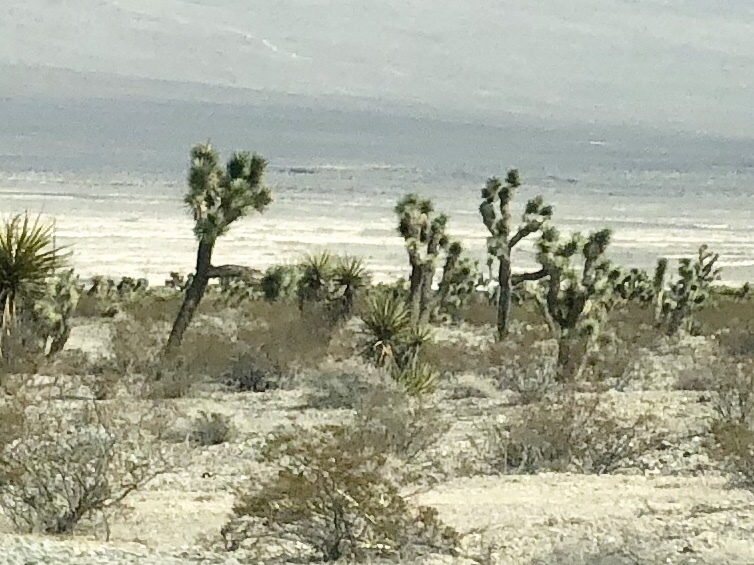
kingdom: Plantae
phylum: Tracheophyta
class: Liliopsida
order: Asparagales
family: Asparagaceae
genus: Yucca
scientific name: Yucca brevifolia
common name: Joshua tree
